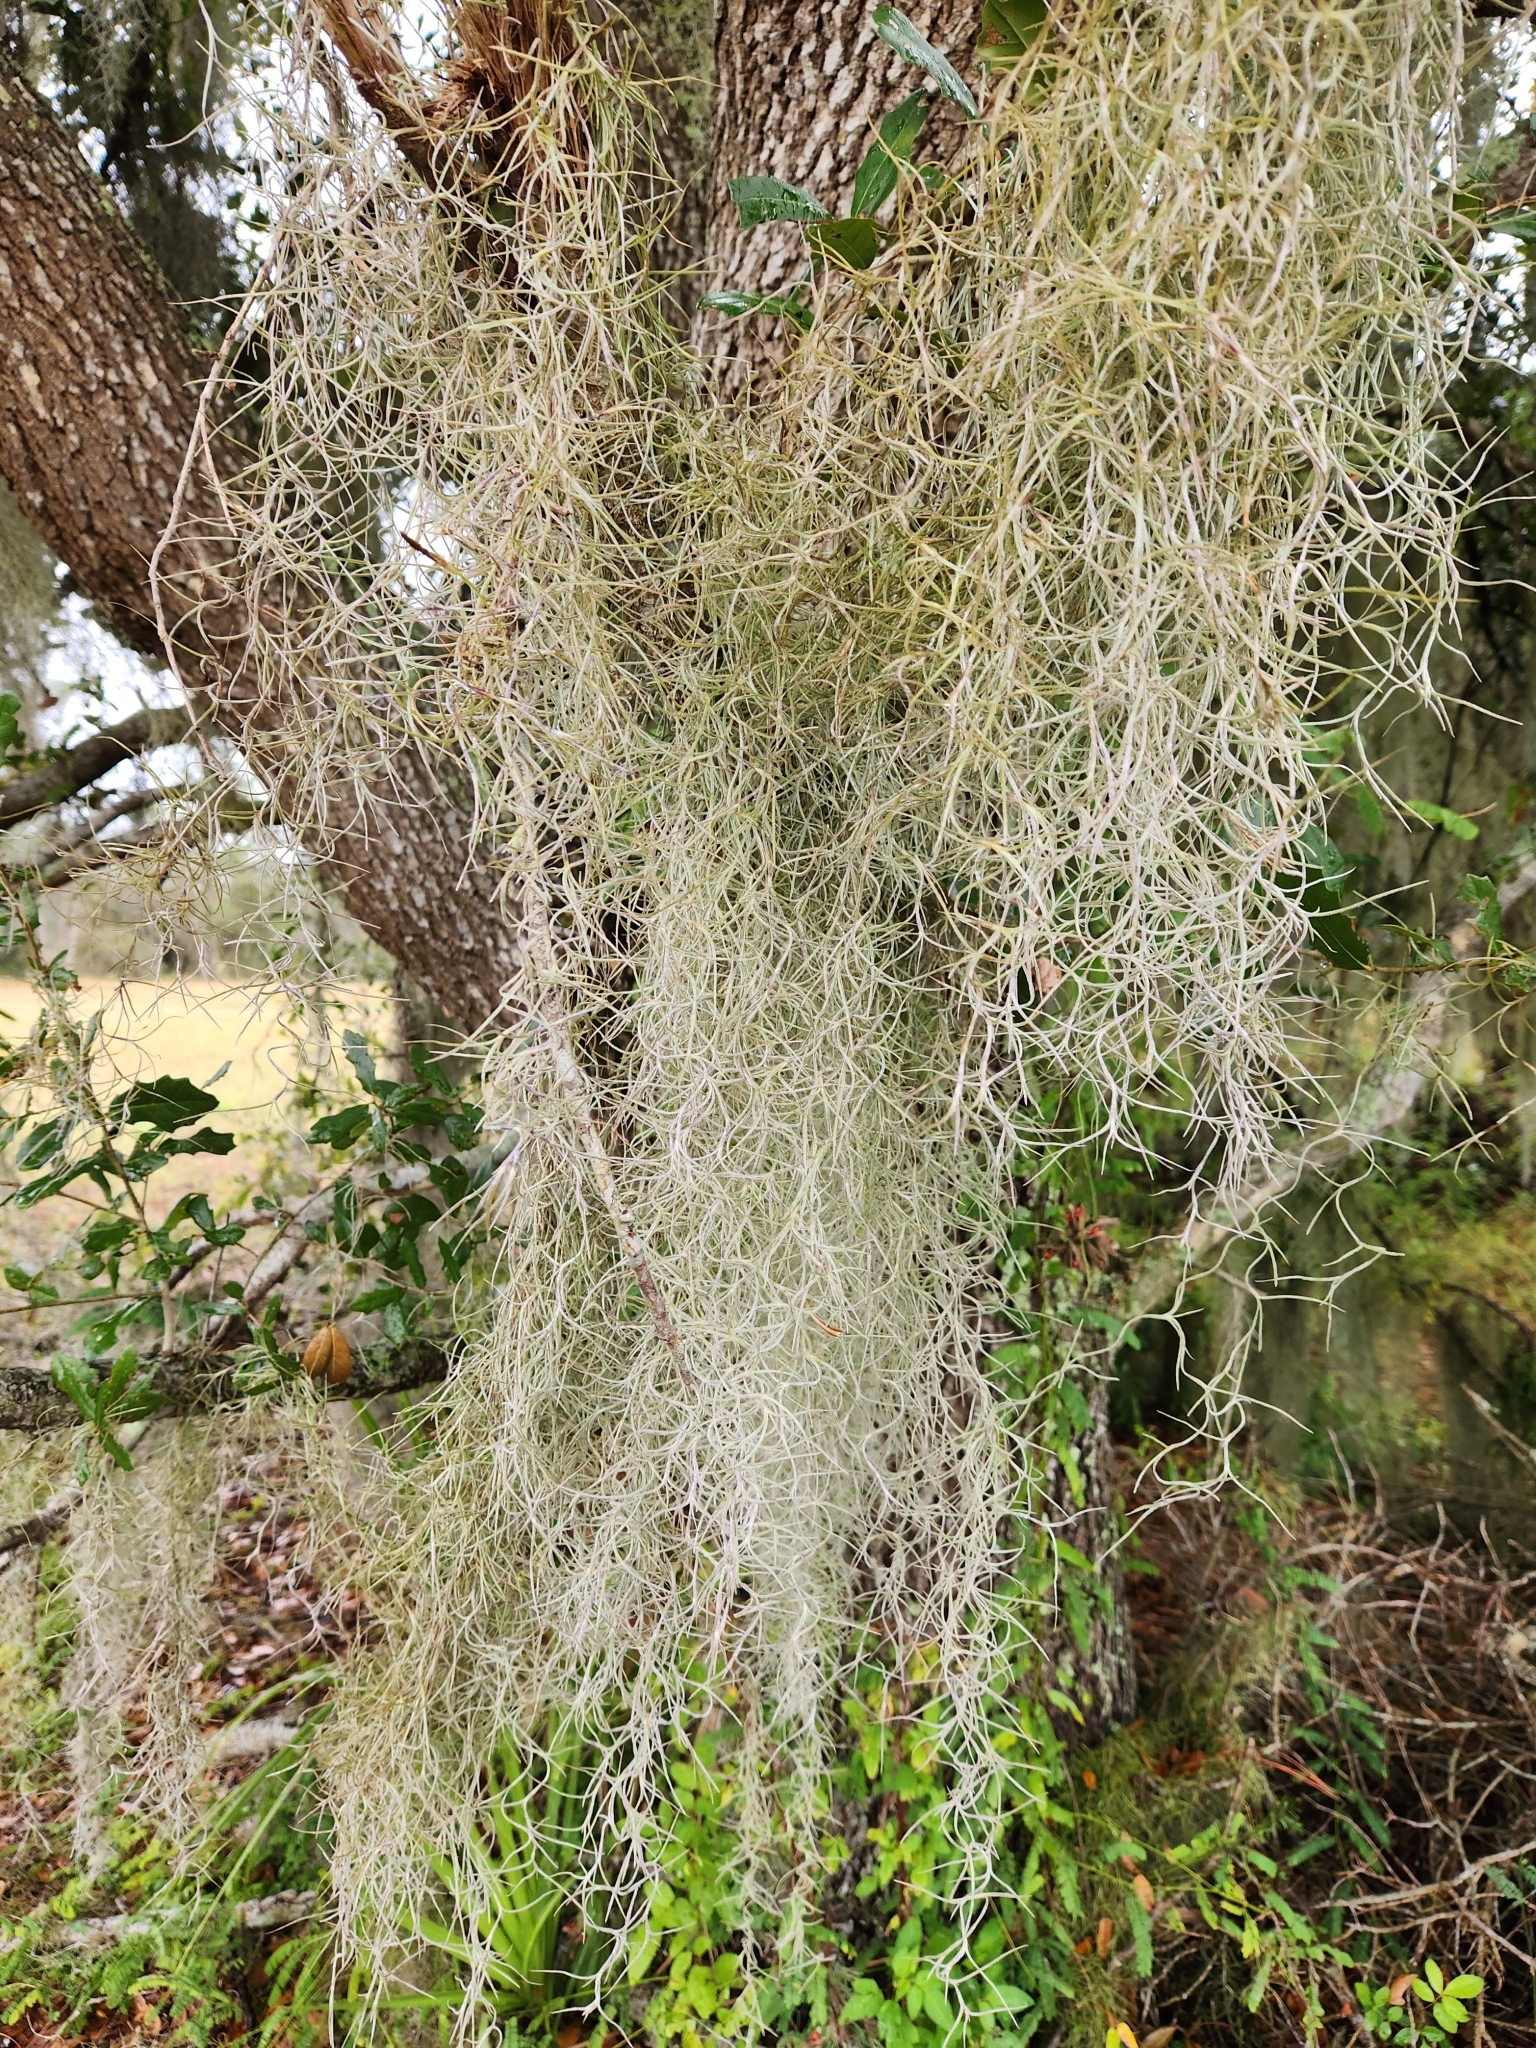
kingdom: Plantae
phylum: Tracheophyta
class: Liliopsida
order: Poales
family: Bromeliaceae
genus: Tillandsia
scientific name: Tillandsia usneoides
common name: Spanish moss
